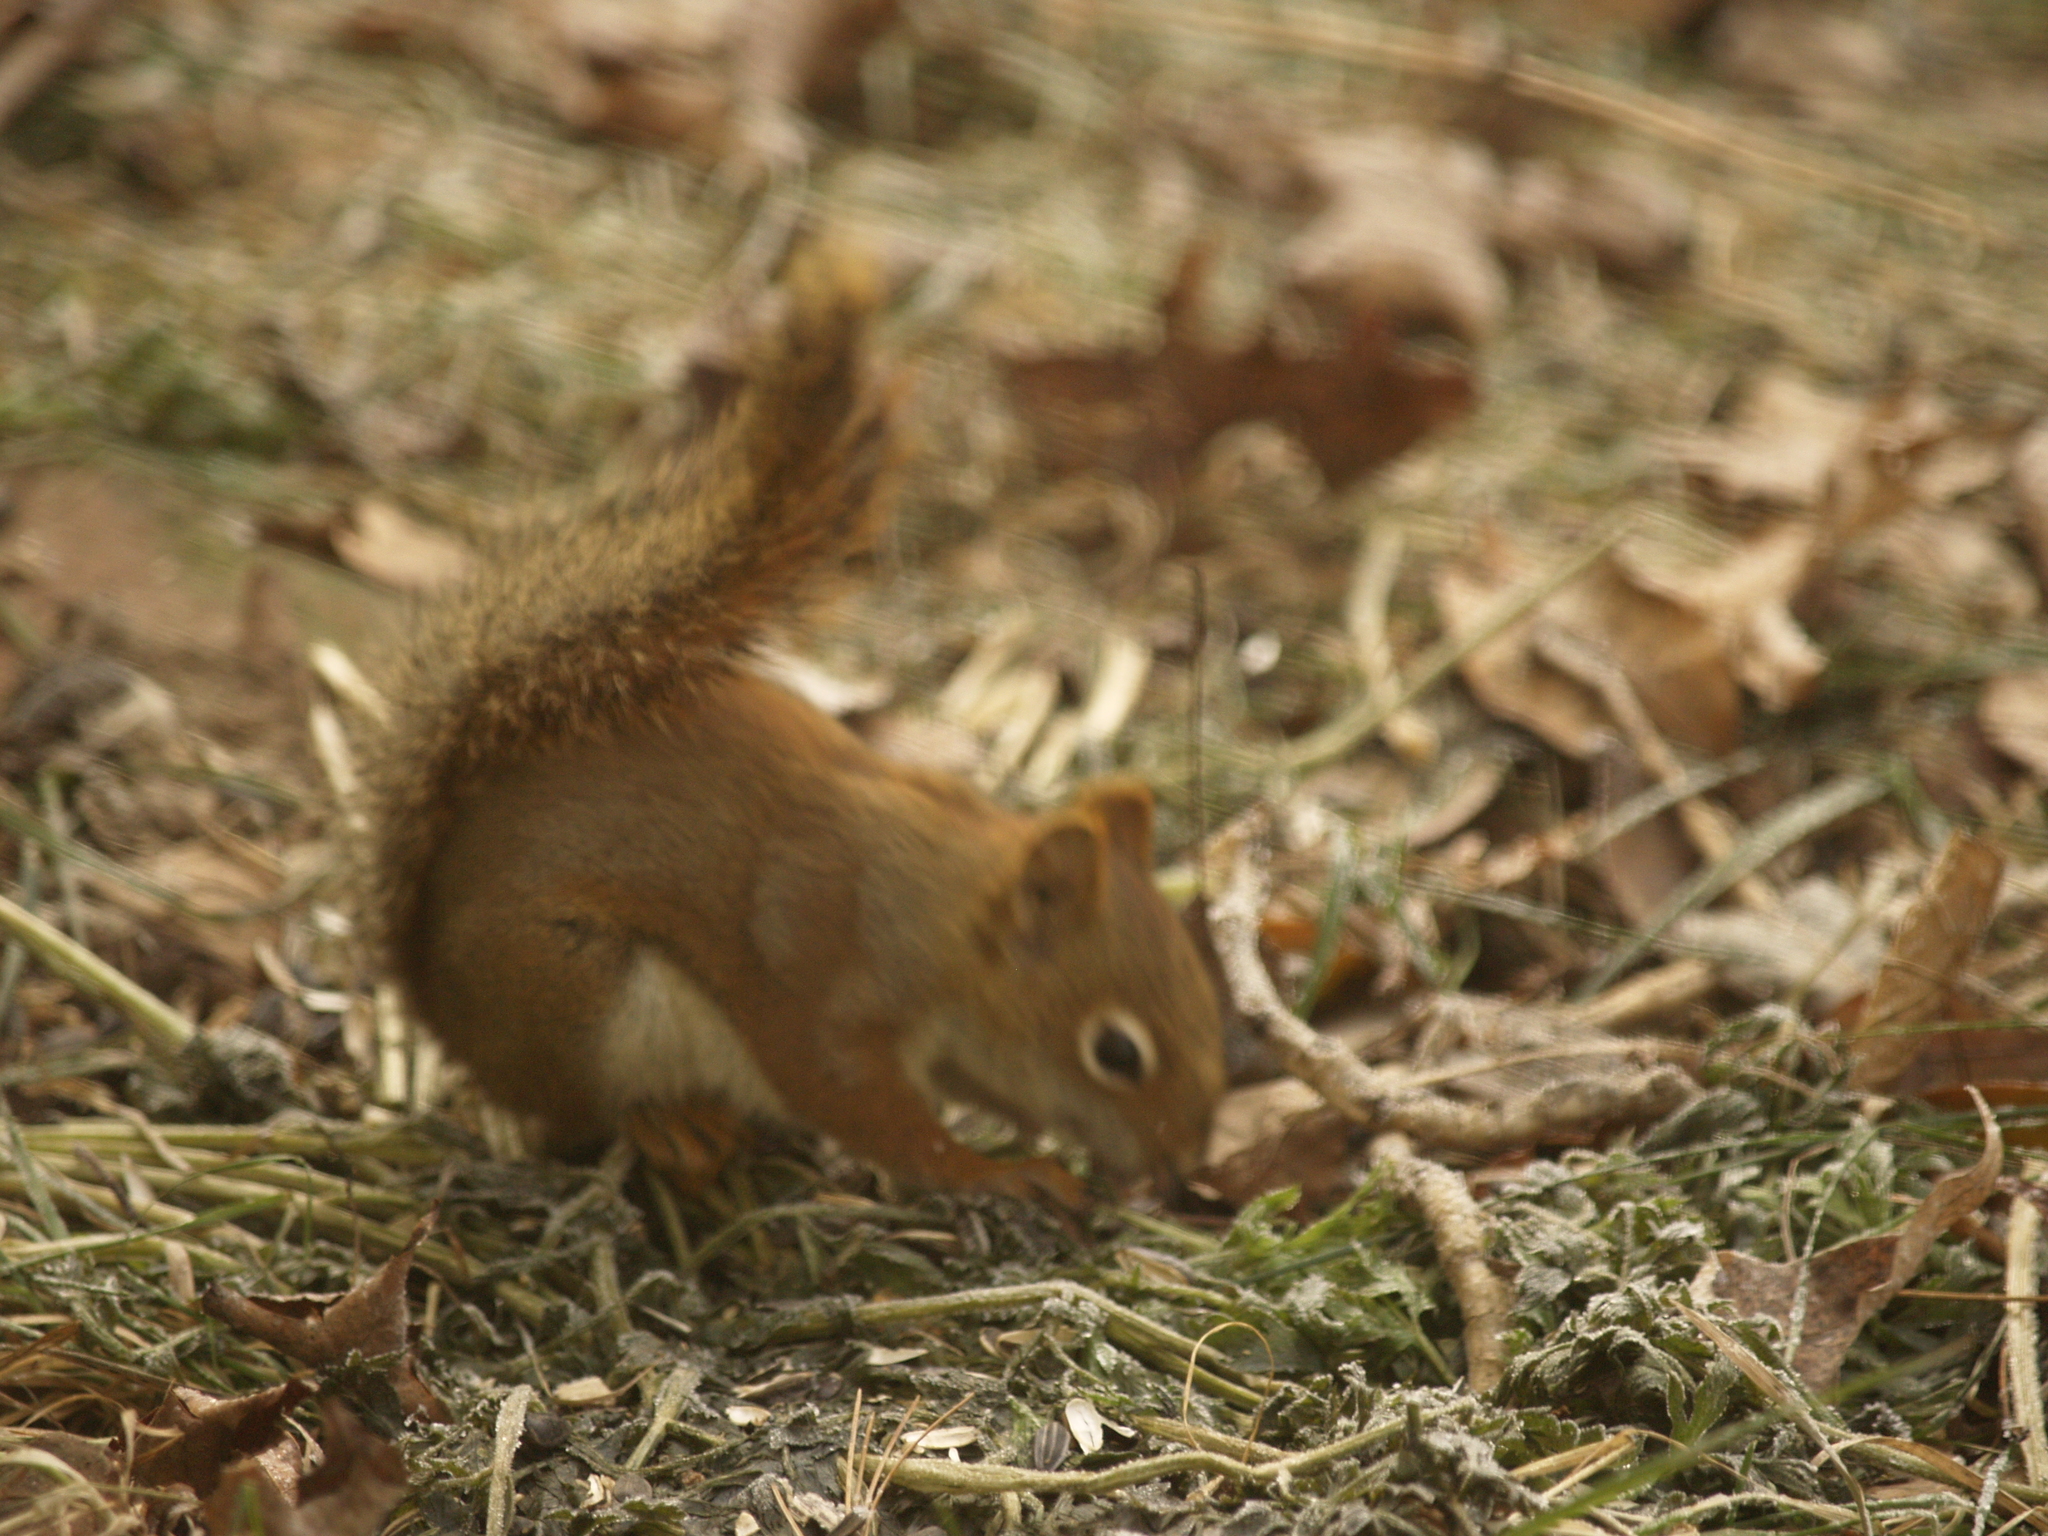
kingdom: Animalia
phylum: Chordata
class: Mammalia
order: Rodentia
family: Sciuridae
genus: Tamiasciurus
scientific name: Tamiasciurus hudsonicus
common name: Red squirrel
